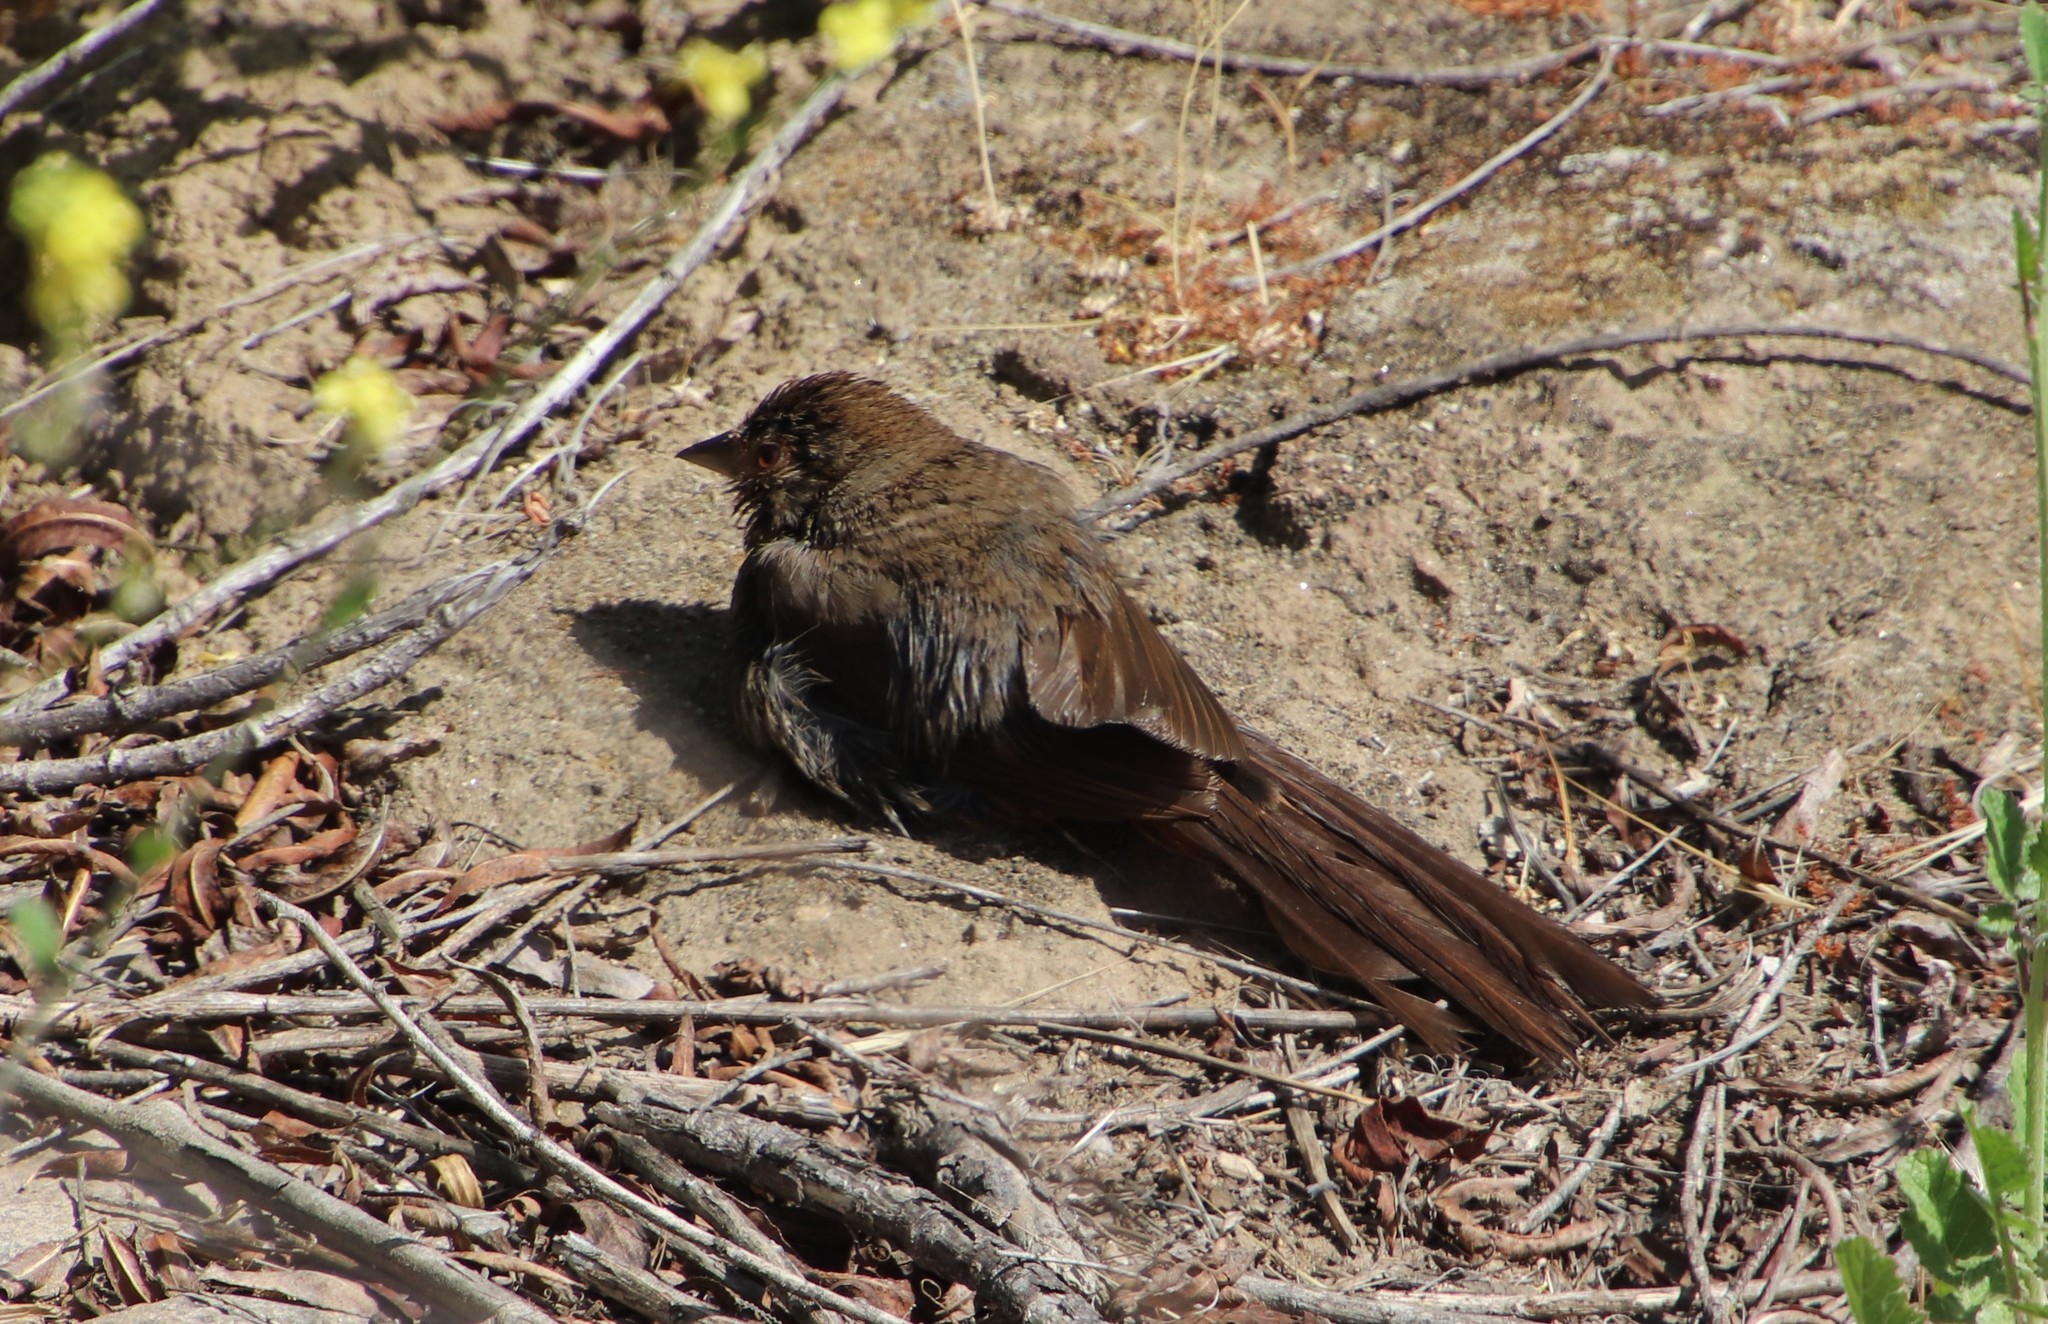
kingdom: Animalia
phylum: Chordata
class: Aves
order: Passeriformes
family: Passerellidae
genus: Melozone
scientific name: Melozone crissalis
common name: California towhee
